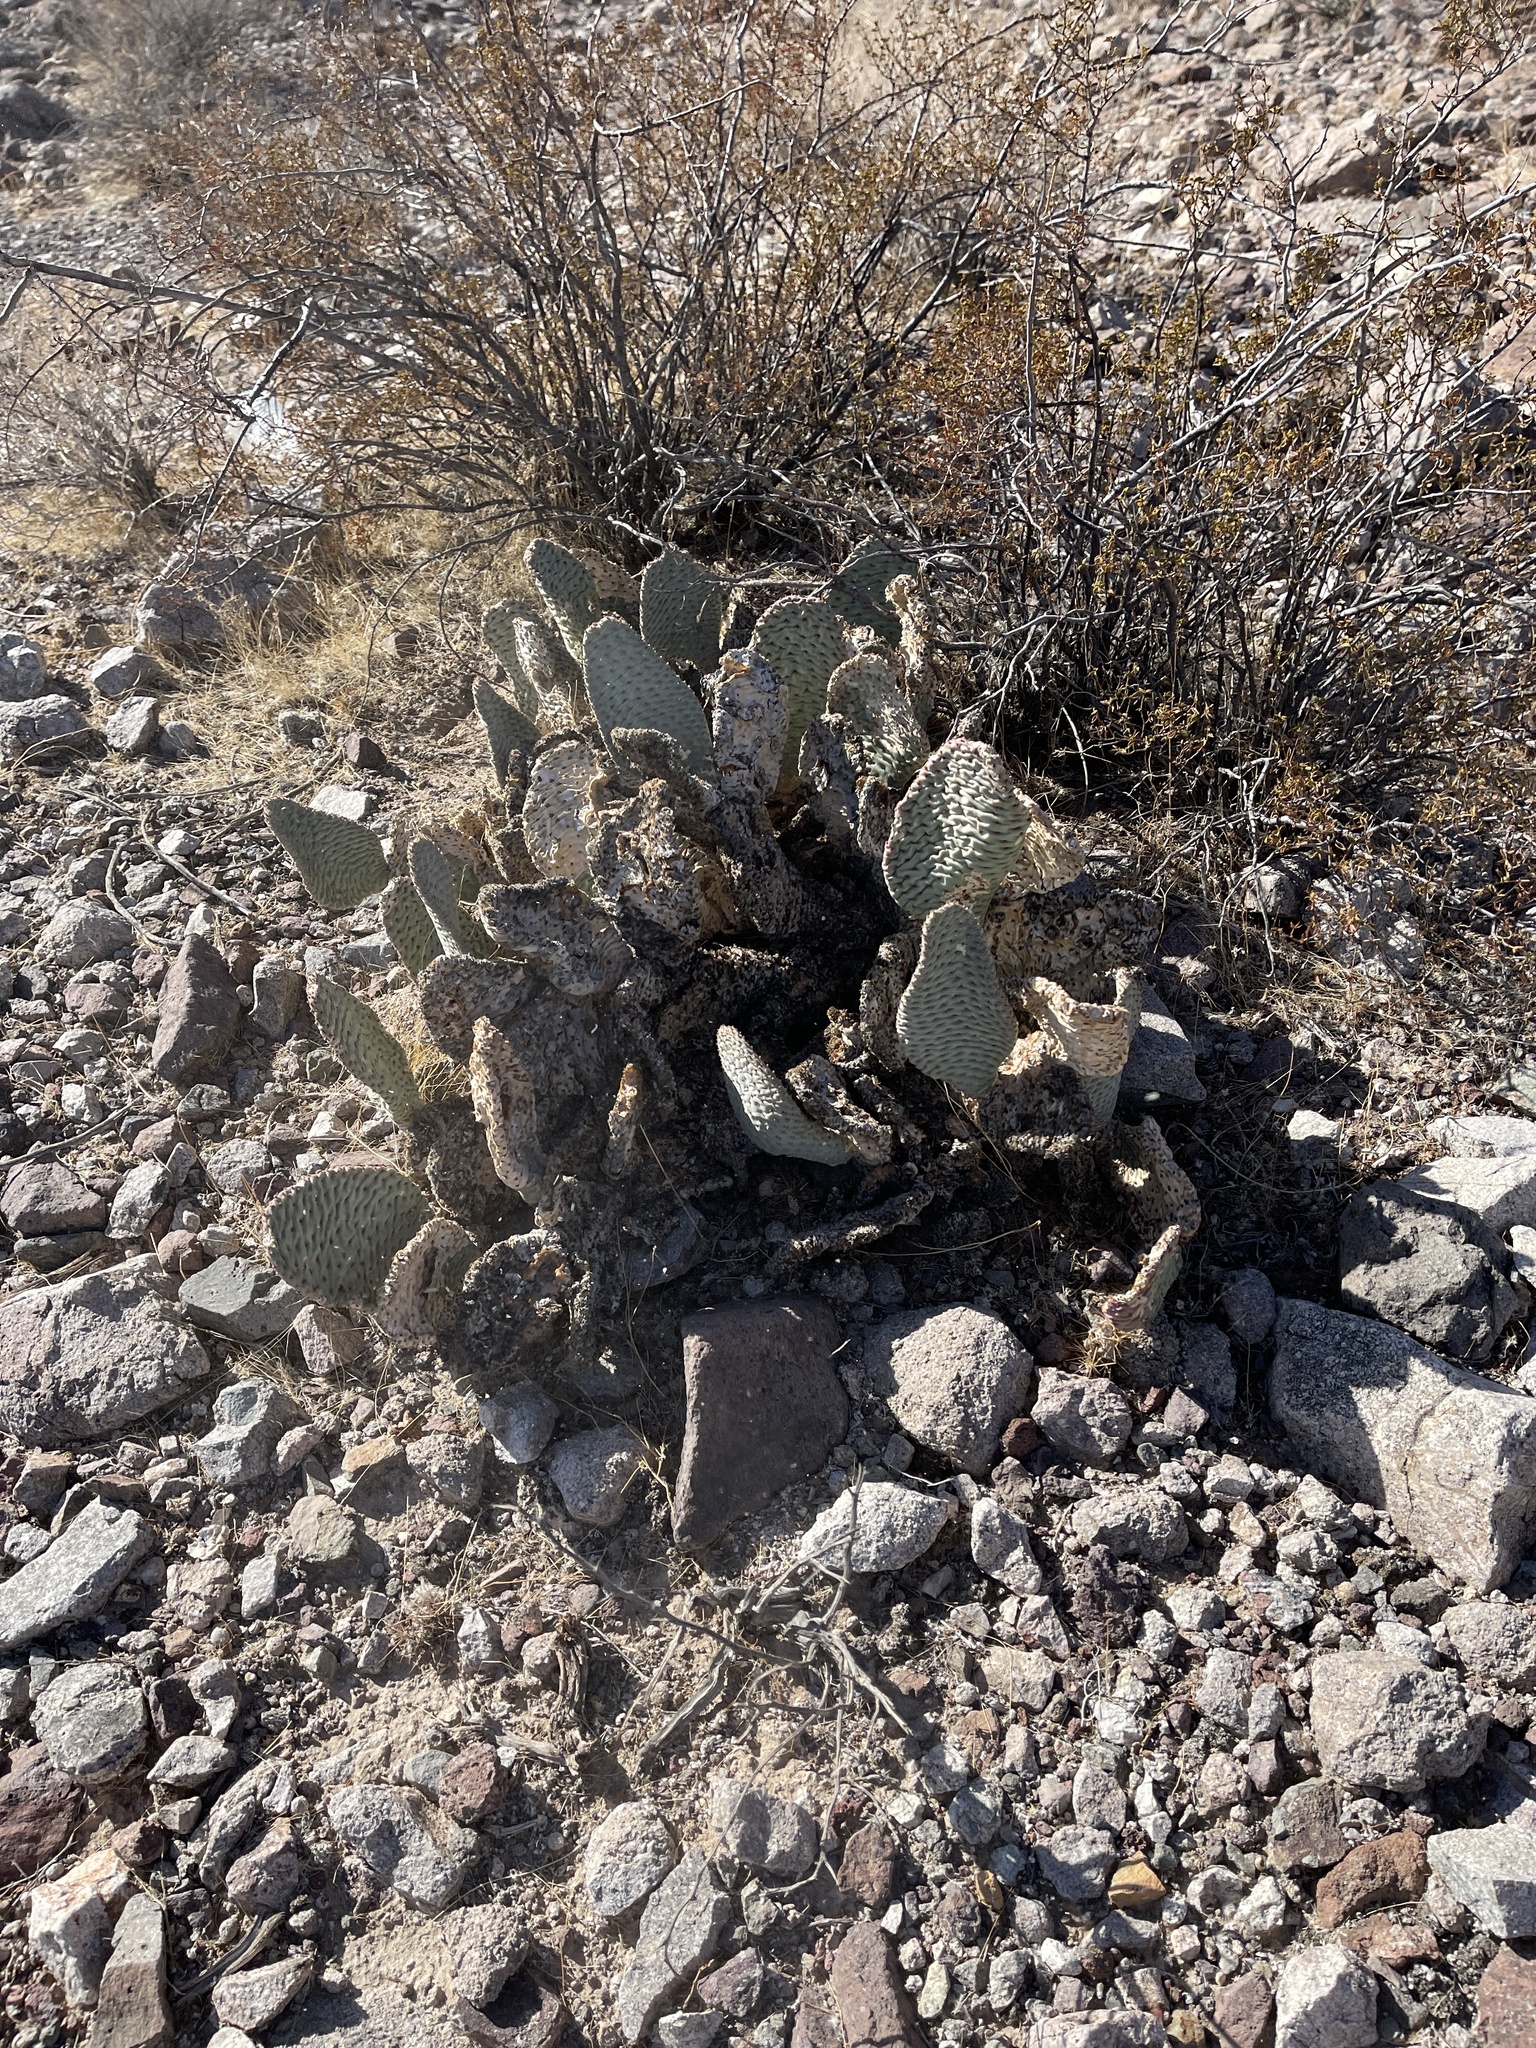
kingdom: Plantae
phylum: Tracheophyta
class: Magnoliopsida
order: Caryophyllales
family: Cactaceae
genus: Opuntia
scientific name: Opuntia basilaris
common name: Beavertail prickly-pear
